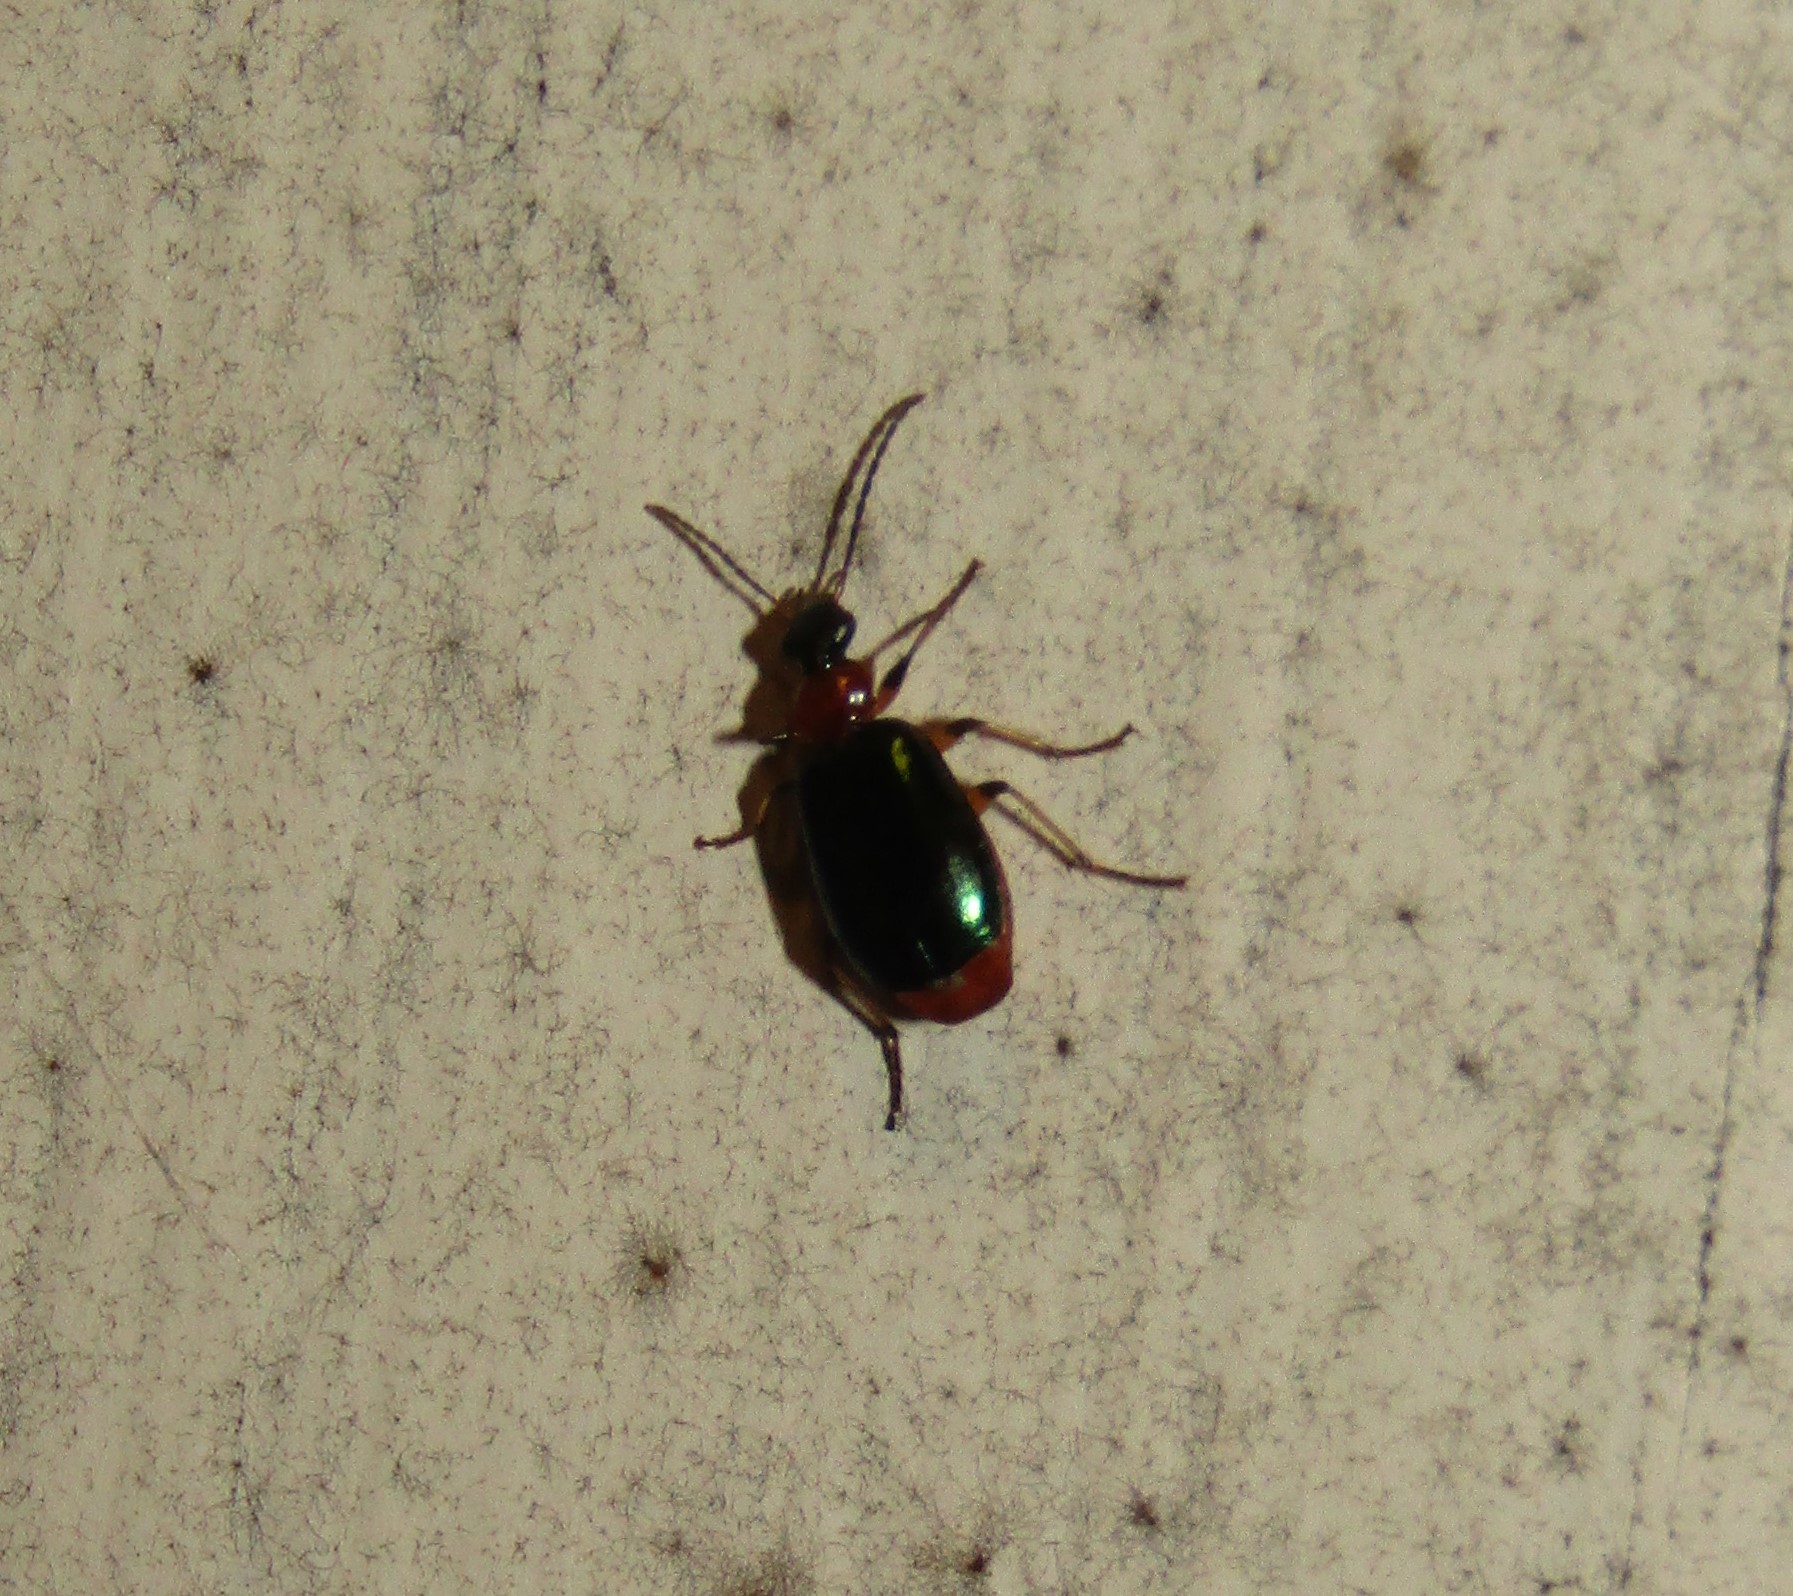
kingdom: Animalia
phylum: Arthropoda
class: Insecta
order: Coleoptera
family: Carabidae
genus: Lebia
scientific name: Lebia viridipennis
